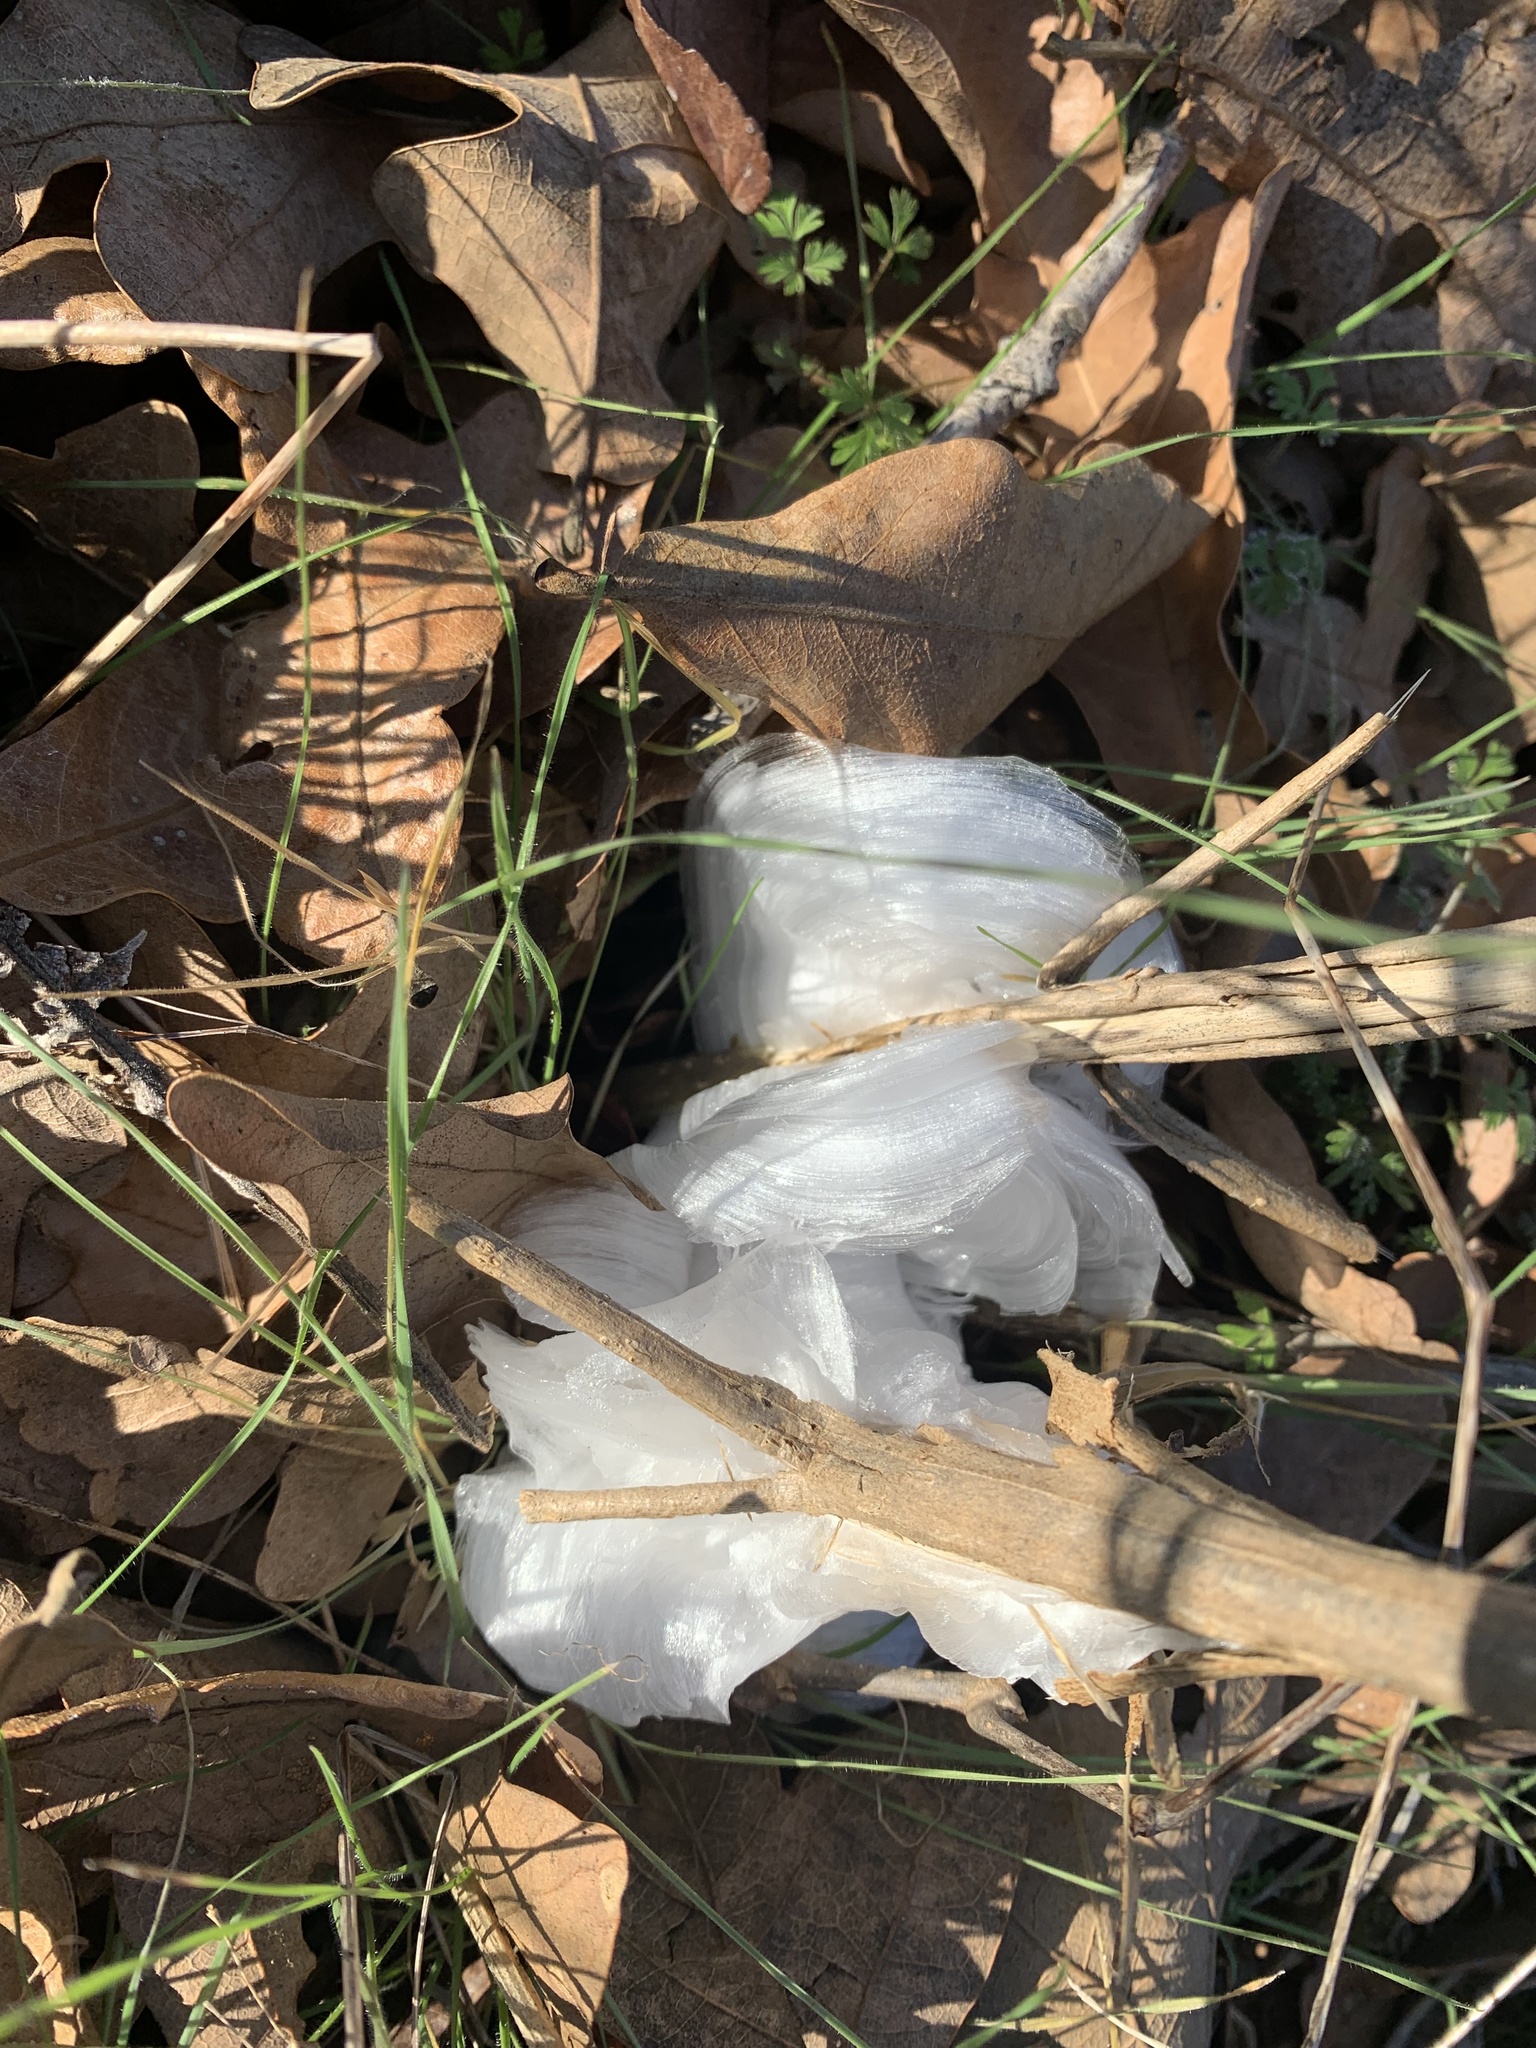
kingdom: Plantae
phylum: Tracheophyta
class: Magnoliopsida
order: Asterales
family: Asteraceae
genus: Verbesina
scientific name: Verbesina virginica
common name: Frostweed
